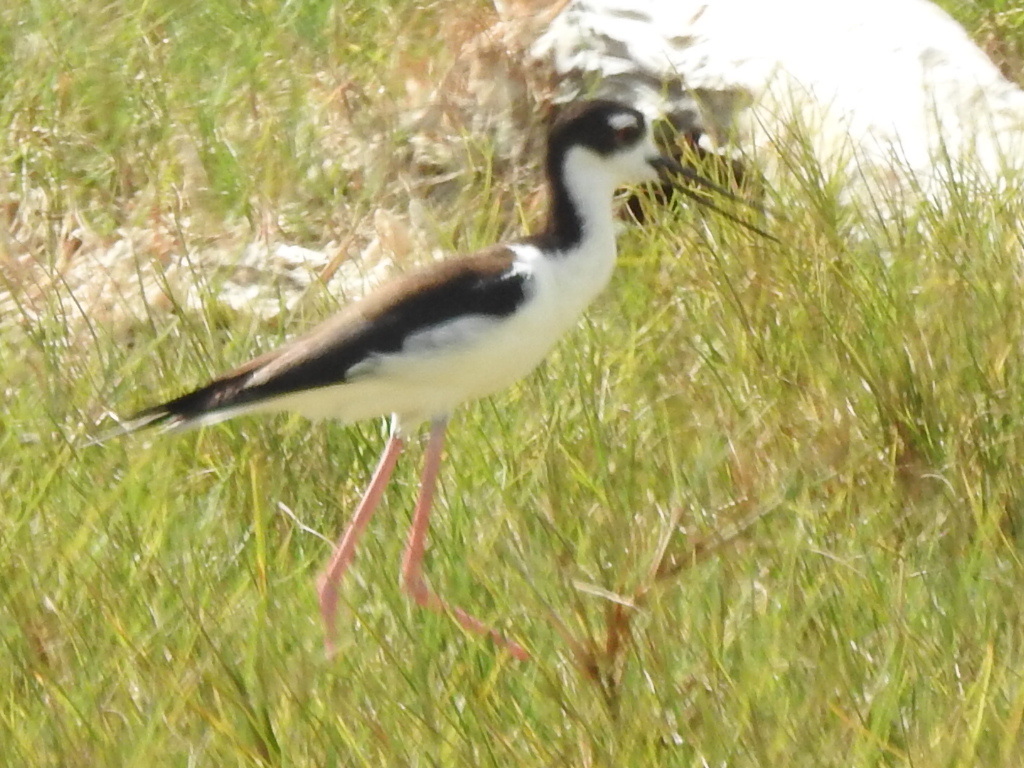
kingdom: Animalia
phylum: Chordata
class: Aves
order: Charadriiformes
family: Recurvirostridae
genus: Himantopus
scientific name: Himantopus mexicanus
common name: Black-necked stilt
